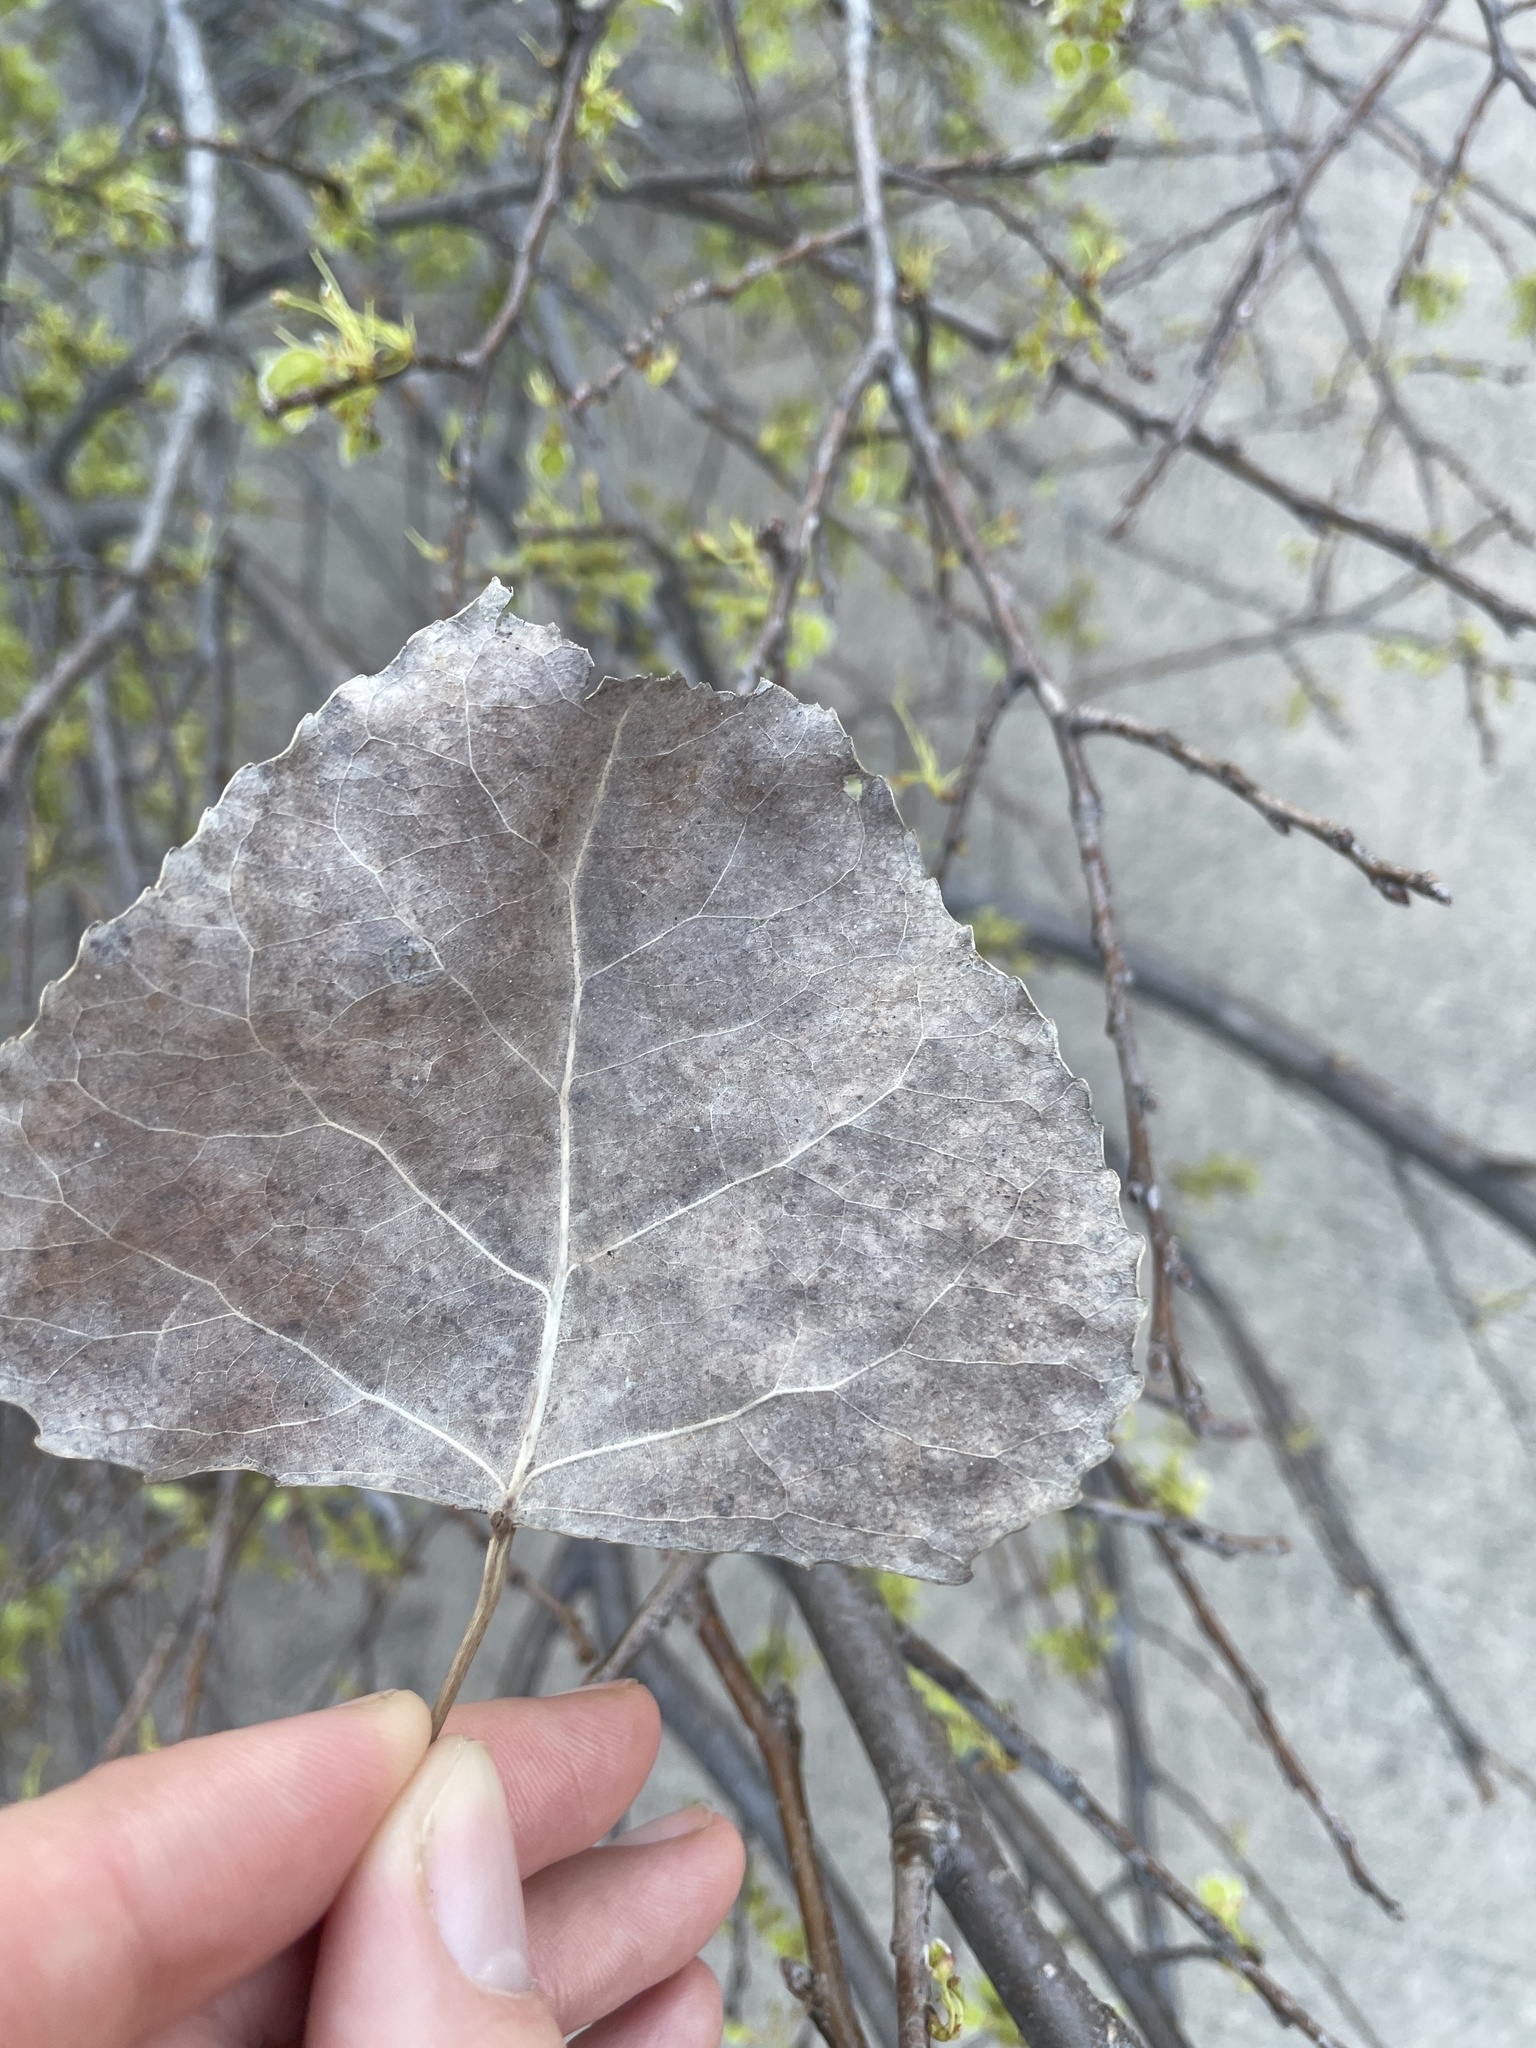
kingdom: Plantae
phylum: Tracheophyta
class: Magnoliopsida
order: Malpighiales
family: Salicaceae
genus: Populus
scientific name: Populus deltoides
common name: Eastern cottonwood
